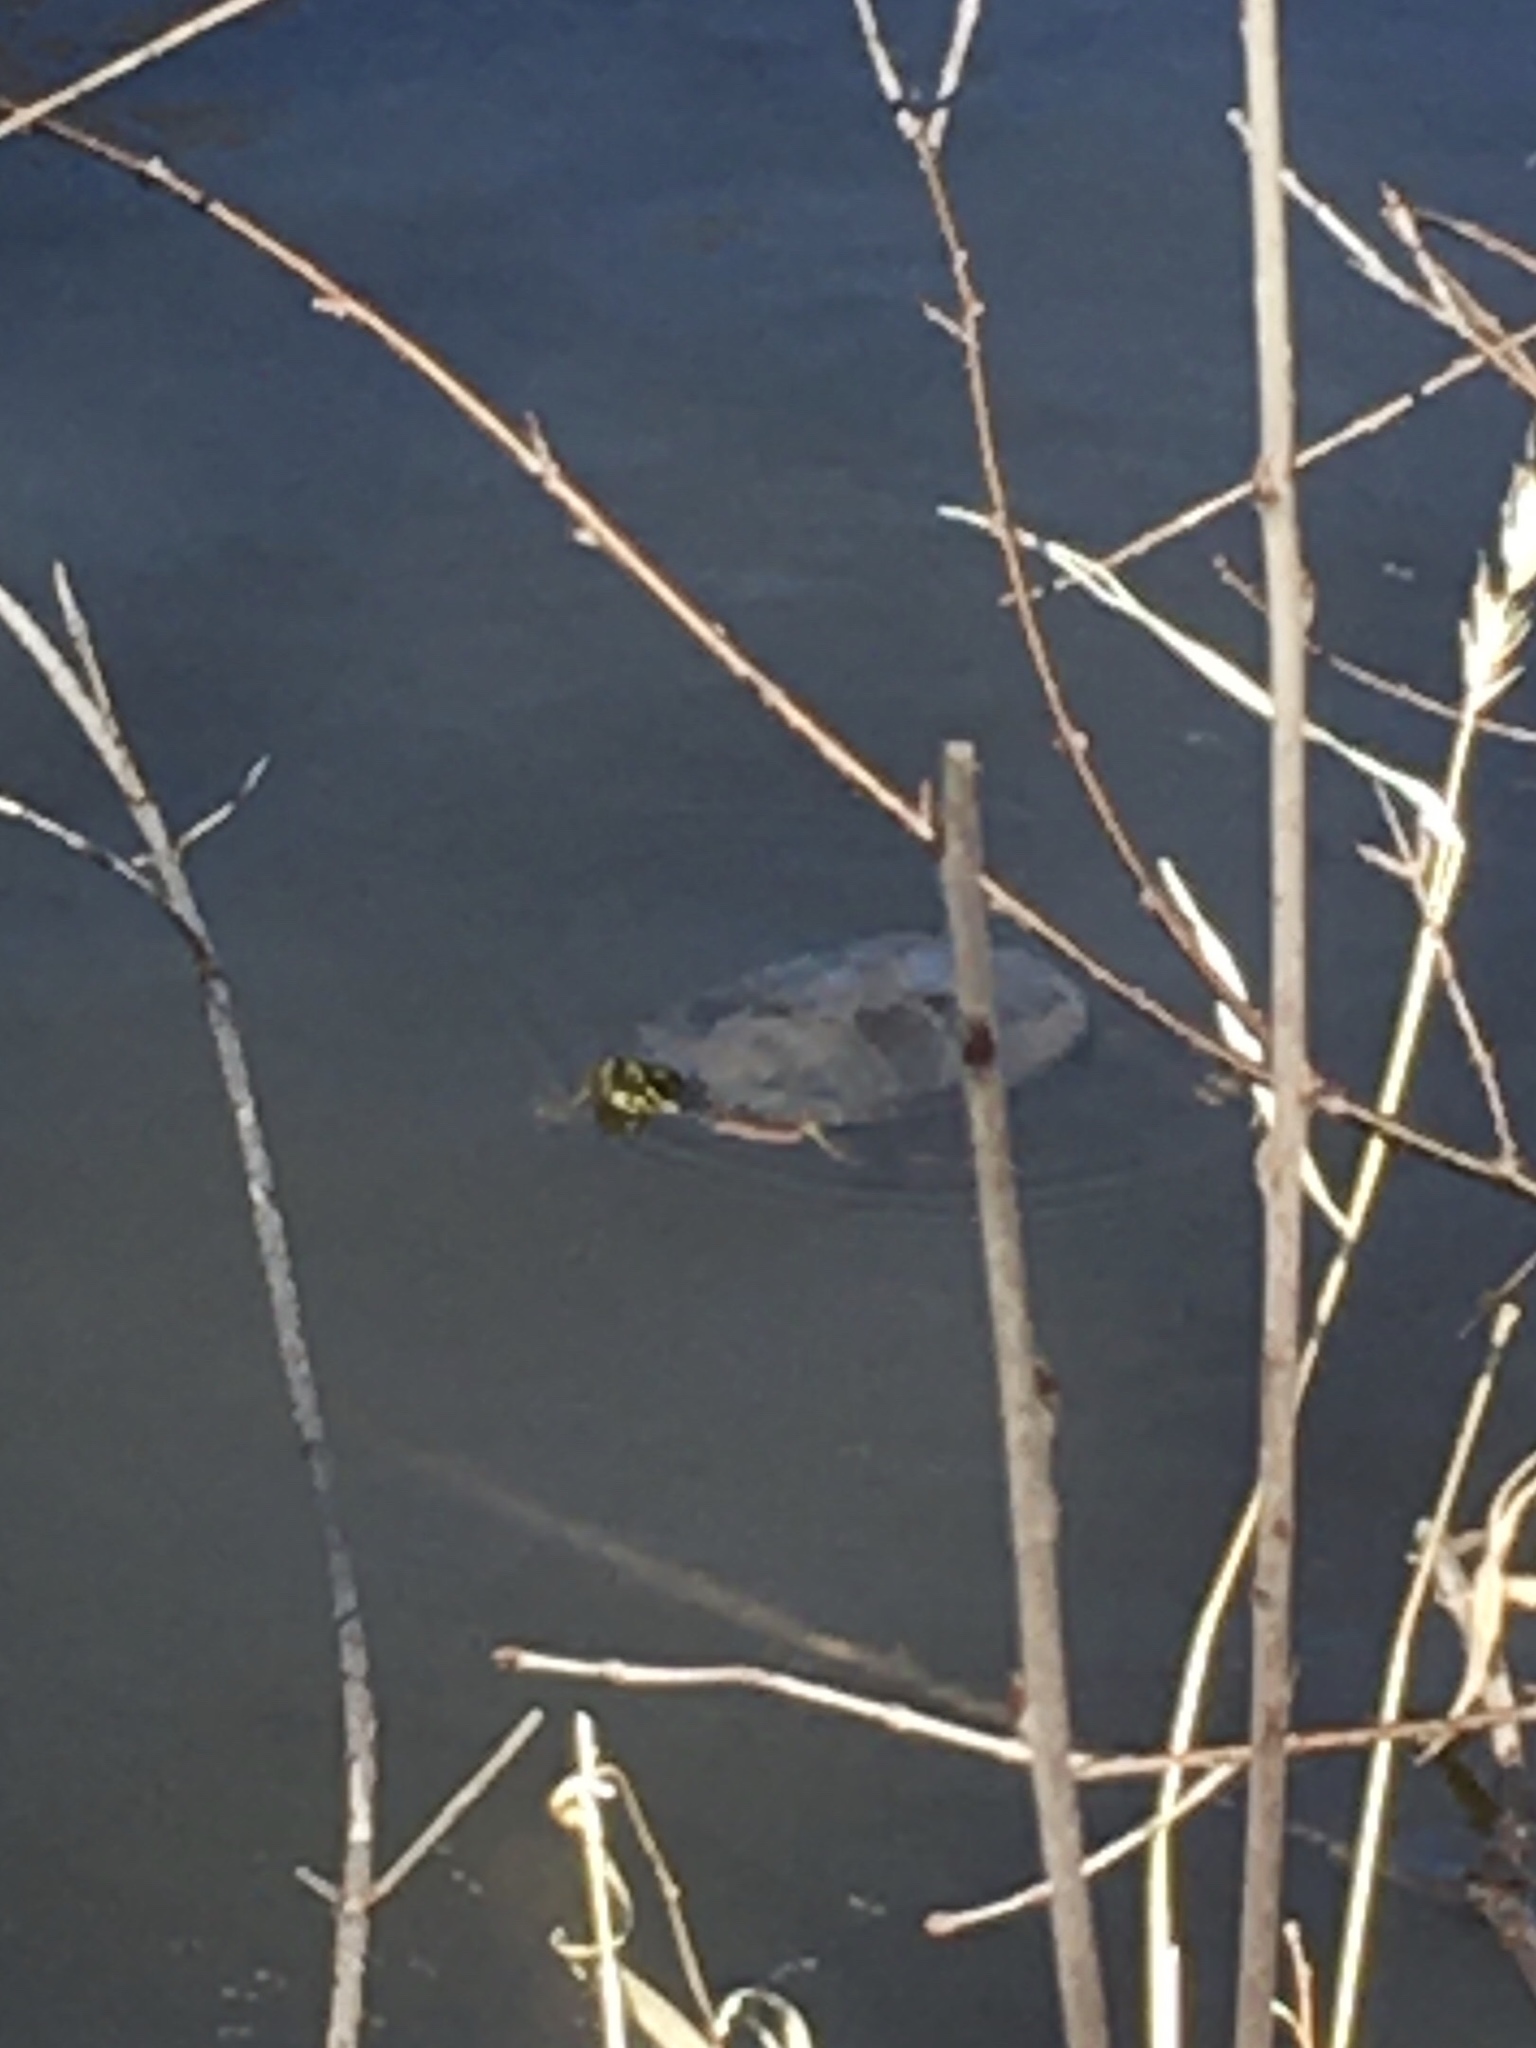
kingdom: Animalia
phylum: Chordata
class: Testudines
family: Emydidae
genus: Chrysemys
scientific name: Chrysemys picta
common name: Painted turtle
